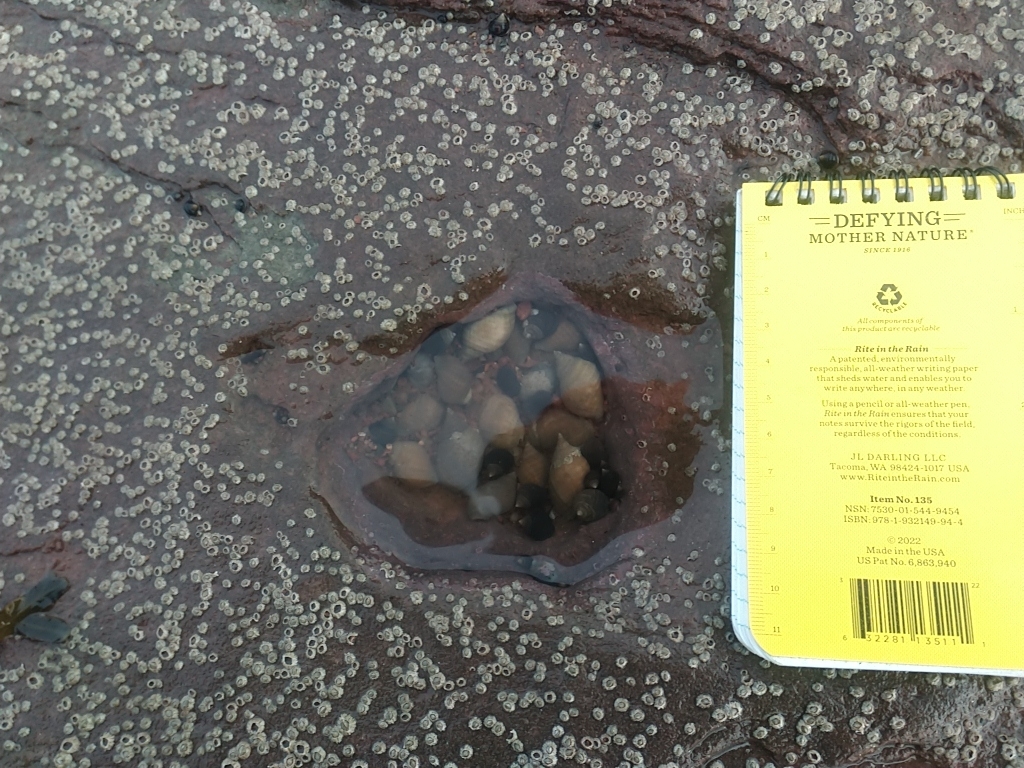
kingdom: Animalia
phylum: Mollusca
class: Gastropoda
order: Neogastropoda
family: Muricidae
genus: Nucella
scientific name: Nucella lapillus
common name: Dog whelk
